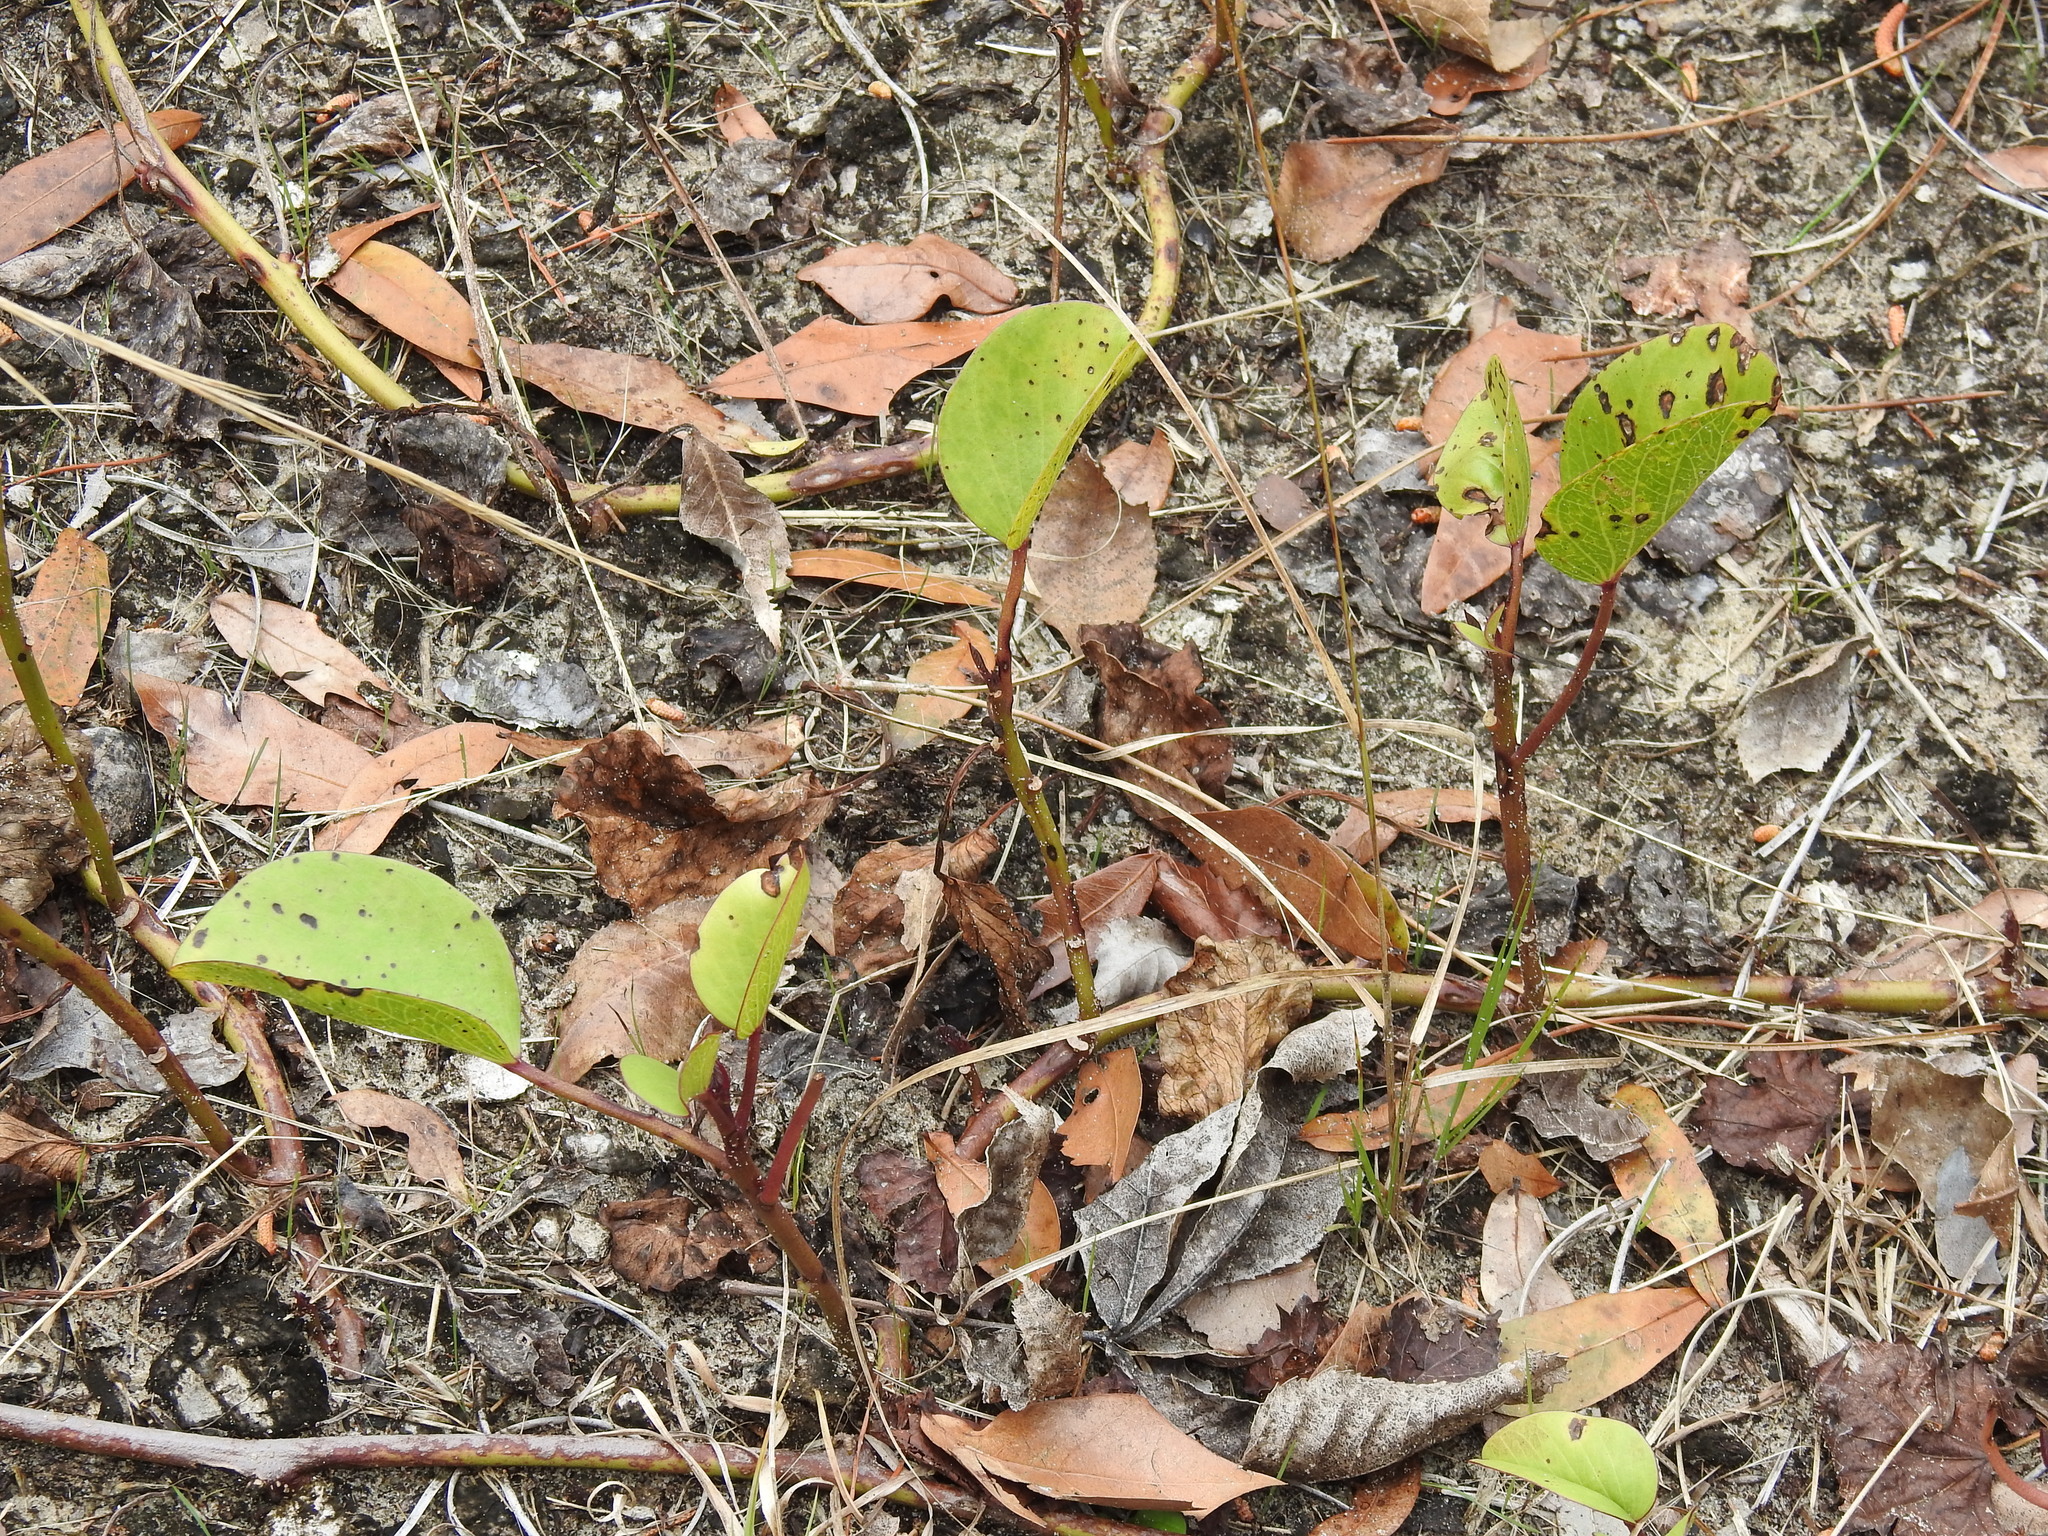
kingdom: Plantae
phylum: Tracheophyta
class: Magnoliopsida
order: Solanales
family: Convolvulaceae
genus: Ipomoea
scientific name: Ipomoea pes-caprae
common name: Beach morning glory
